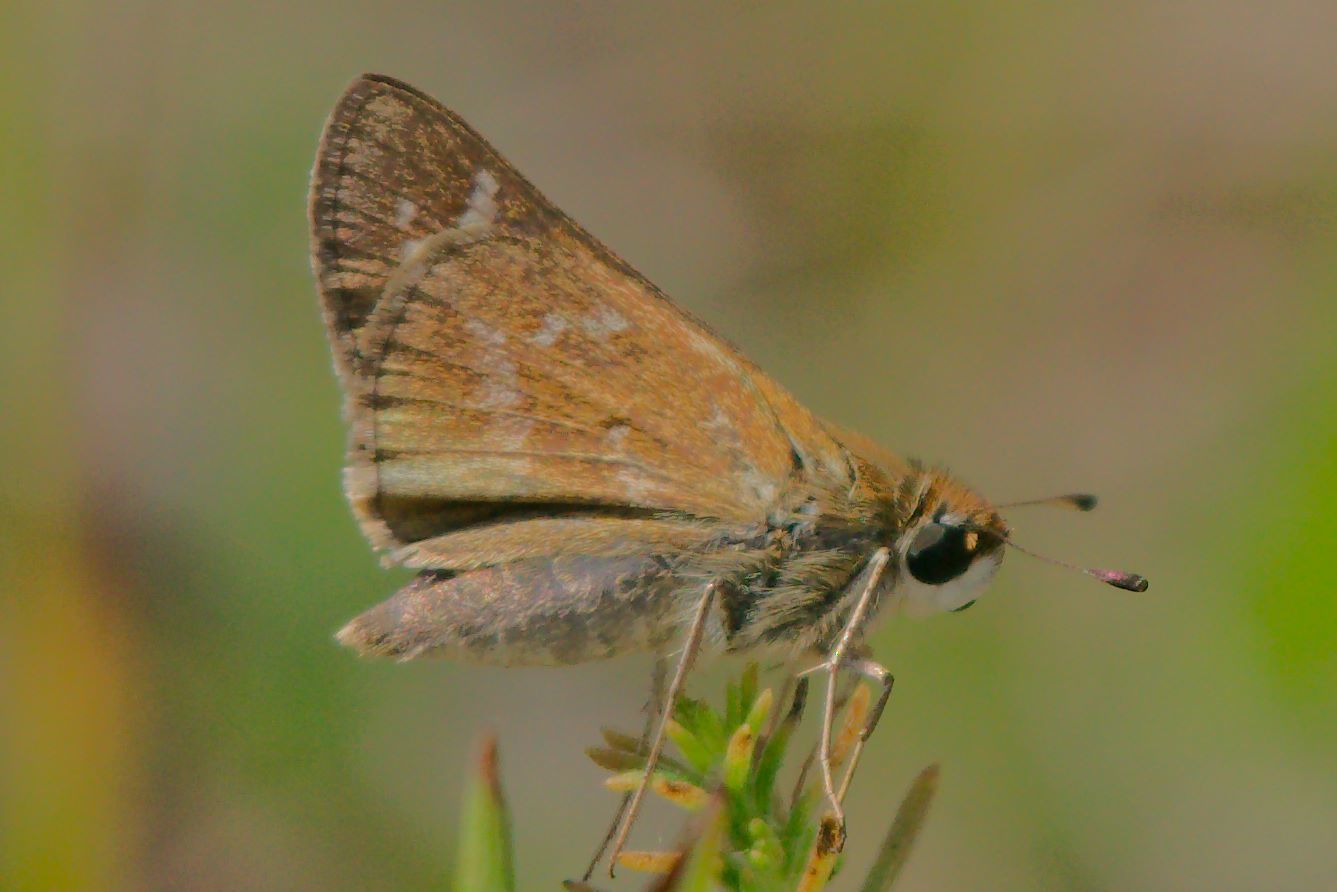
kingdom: Animalia
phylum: Arthropoda
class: Insecta
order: Lepidoptera
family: Hesperiidae
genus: Atalopedes
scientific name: Atalopedes
